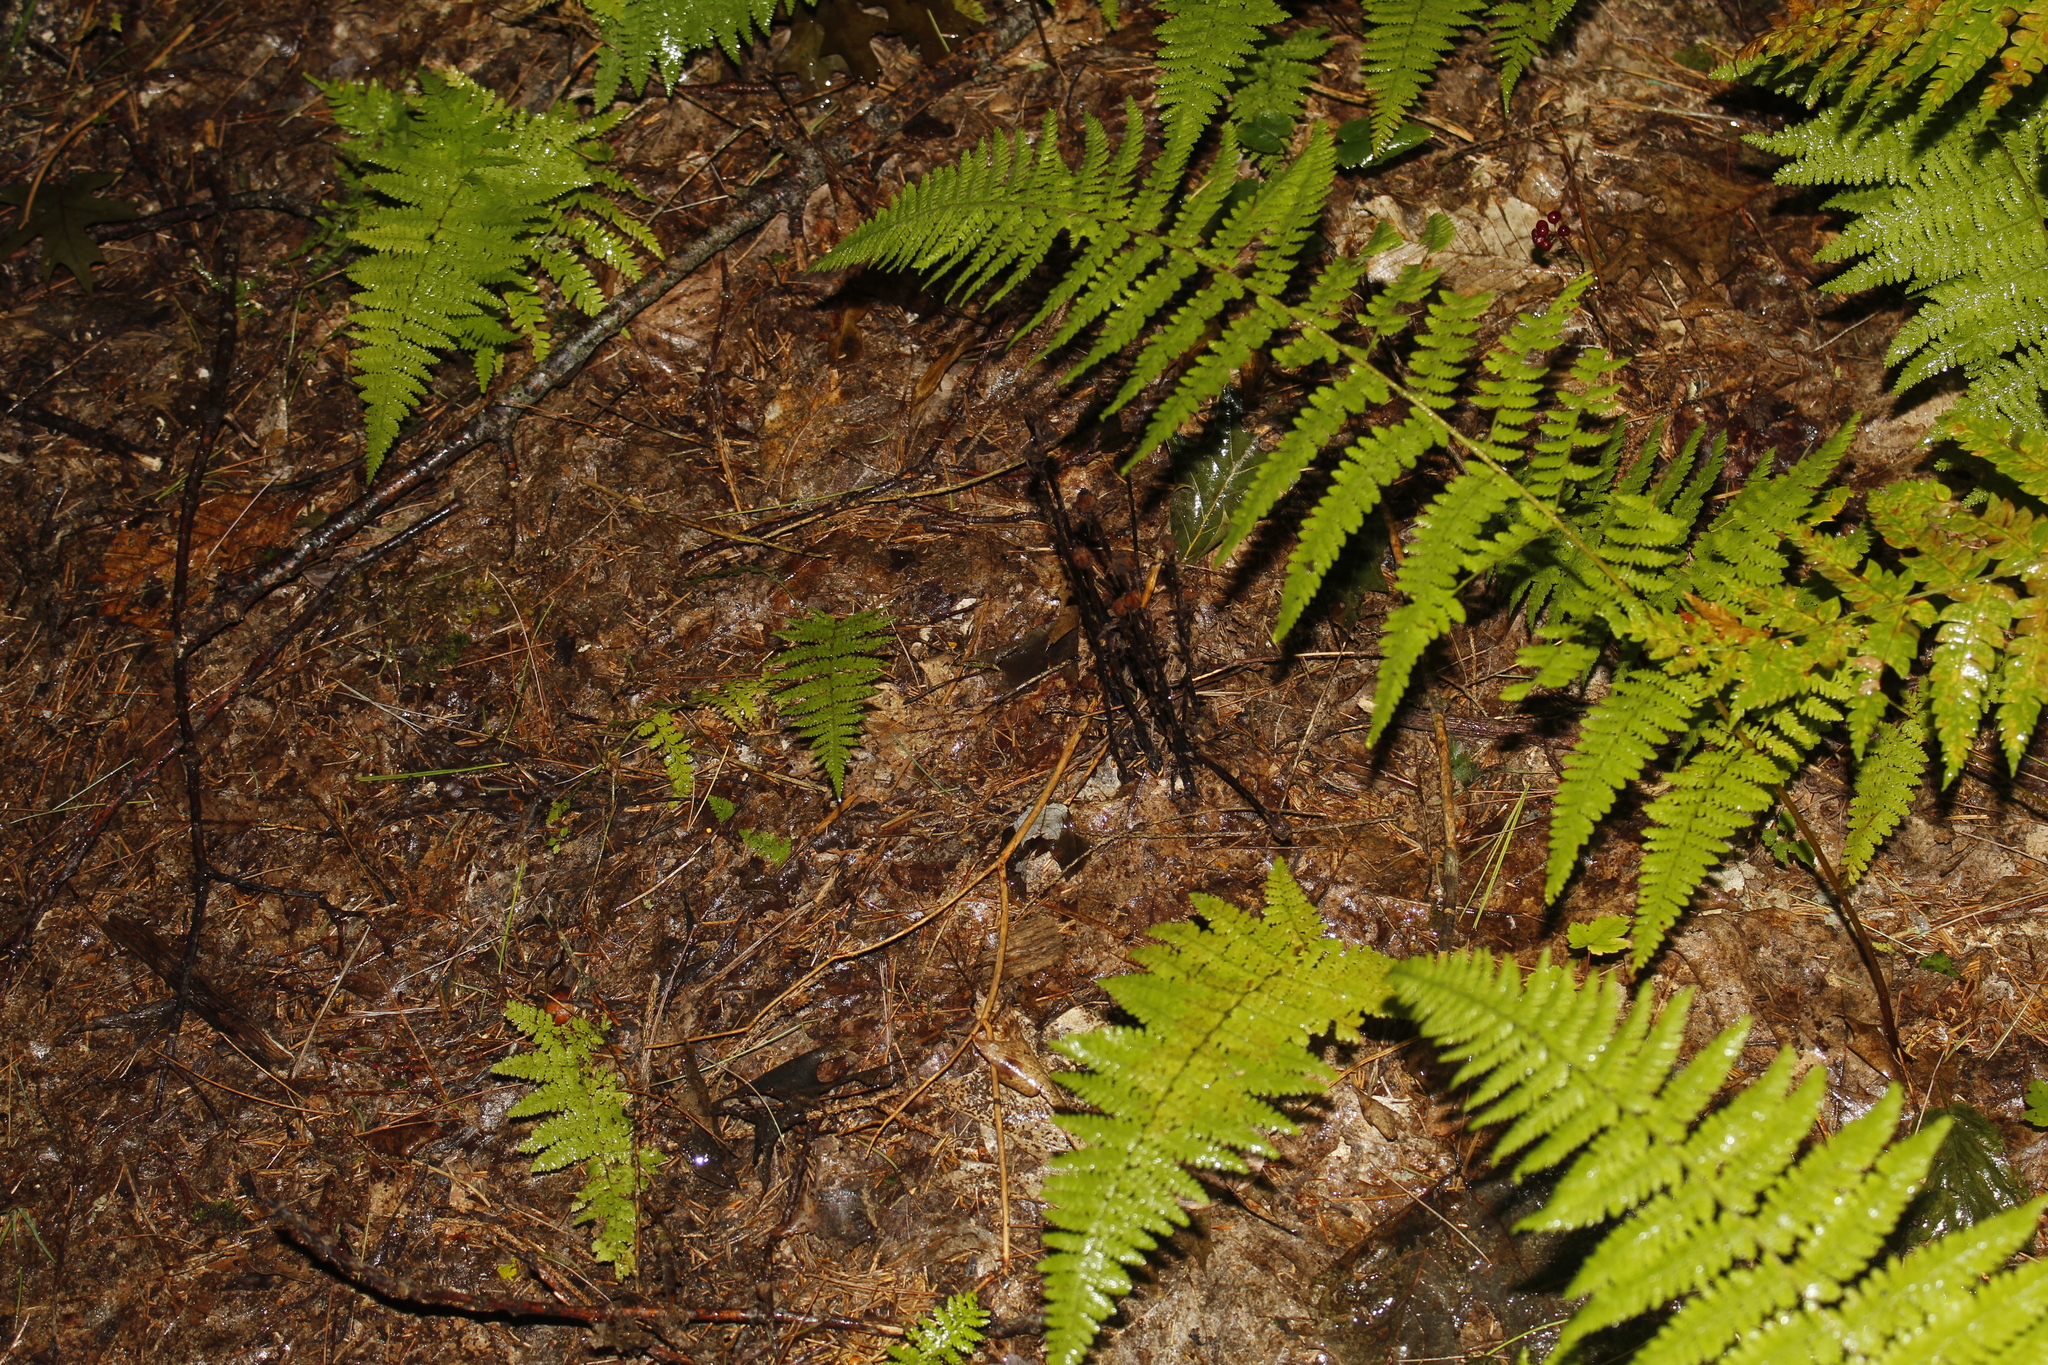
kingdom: Plantae
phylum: Tracheophyta
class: Magnoliopsida
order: Ericales
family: Ericaceae
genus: Monotropa
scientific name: Monotropa uniflora
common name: Convulsion root
